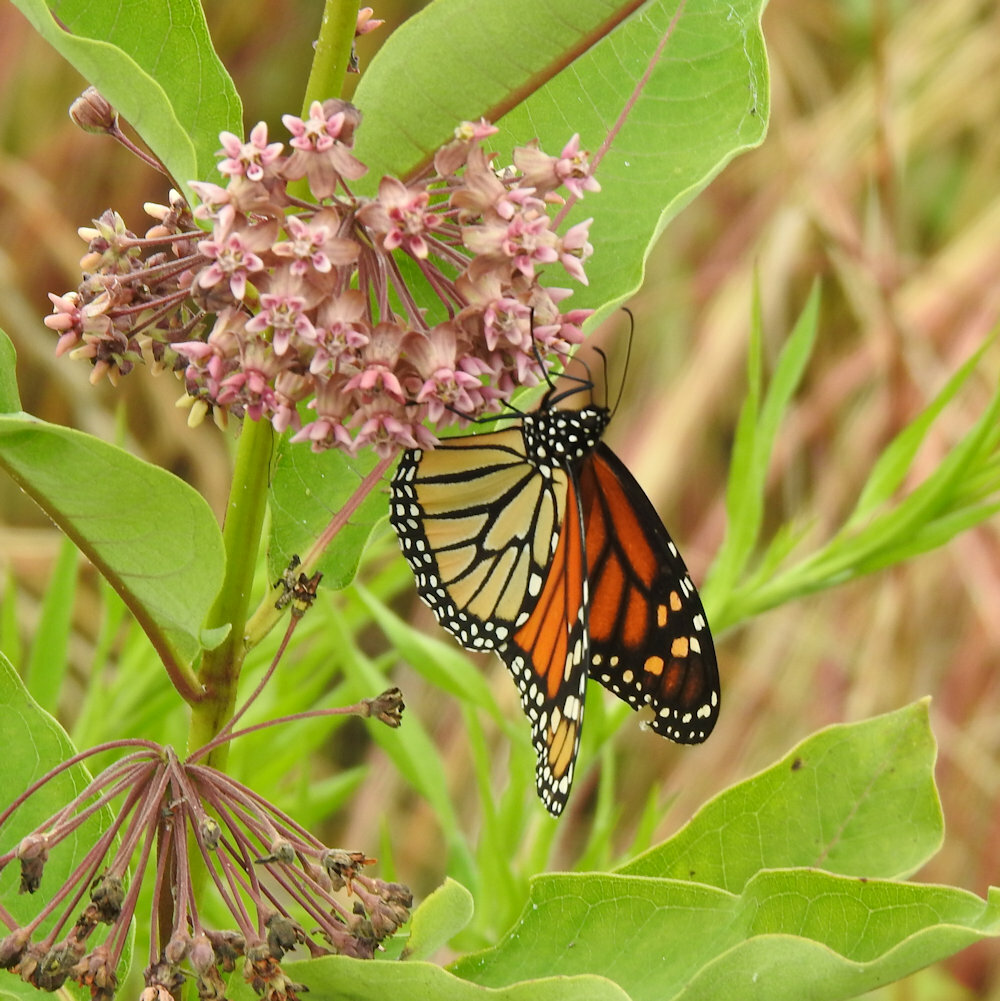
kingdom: Animalia
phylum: Arthropoda
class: Insecta
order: Lepidoptera
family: Nymphalidae
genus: Danaus
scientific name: Danaus plexippus
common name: Monarch
